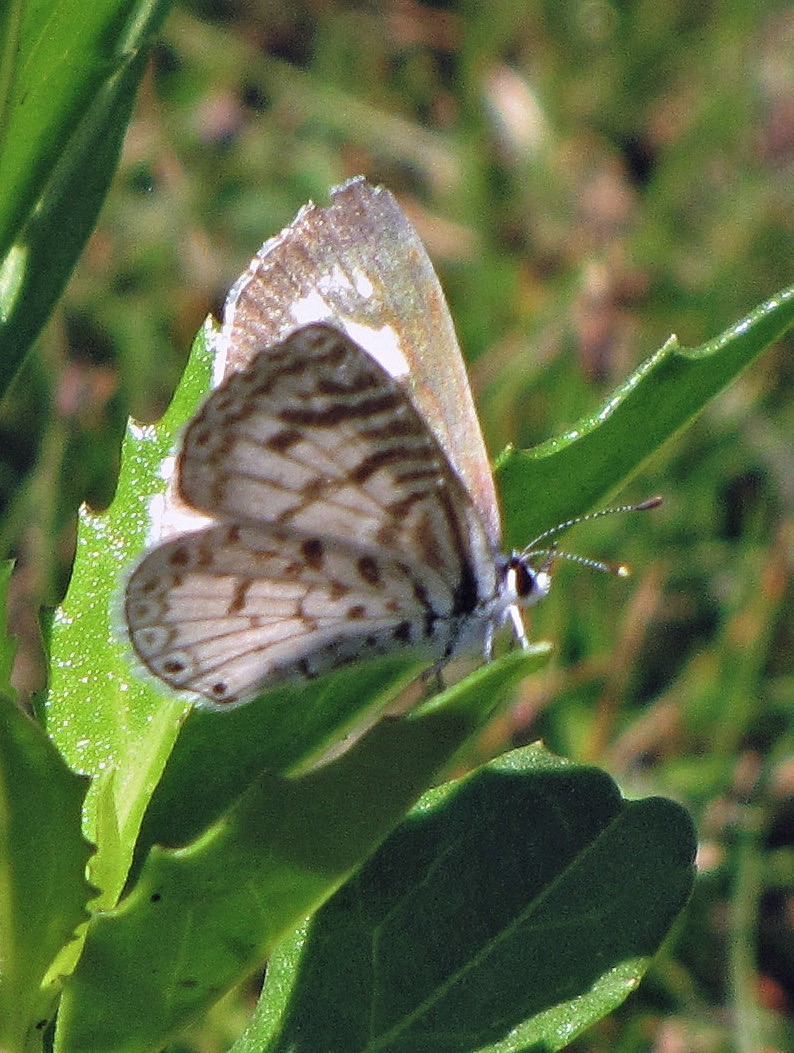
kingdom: Animalia
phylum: Arthropoda
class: Insecta
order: Lepidoptera
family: Lycaenidae
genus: Leptotes
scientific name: Leptotes cassius
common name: Cassius blue
